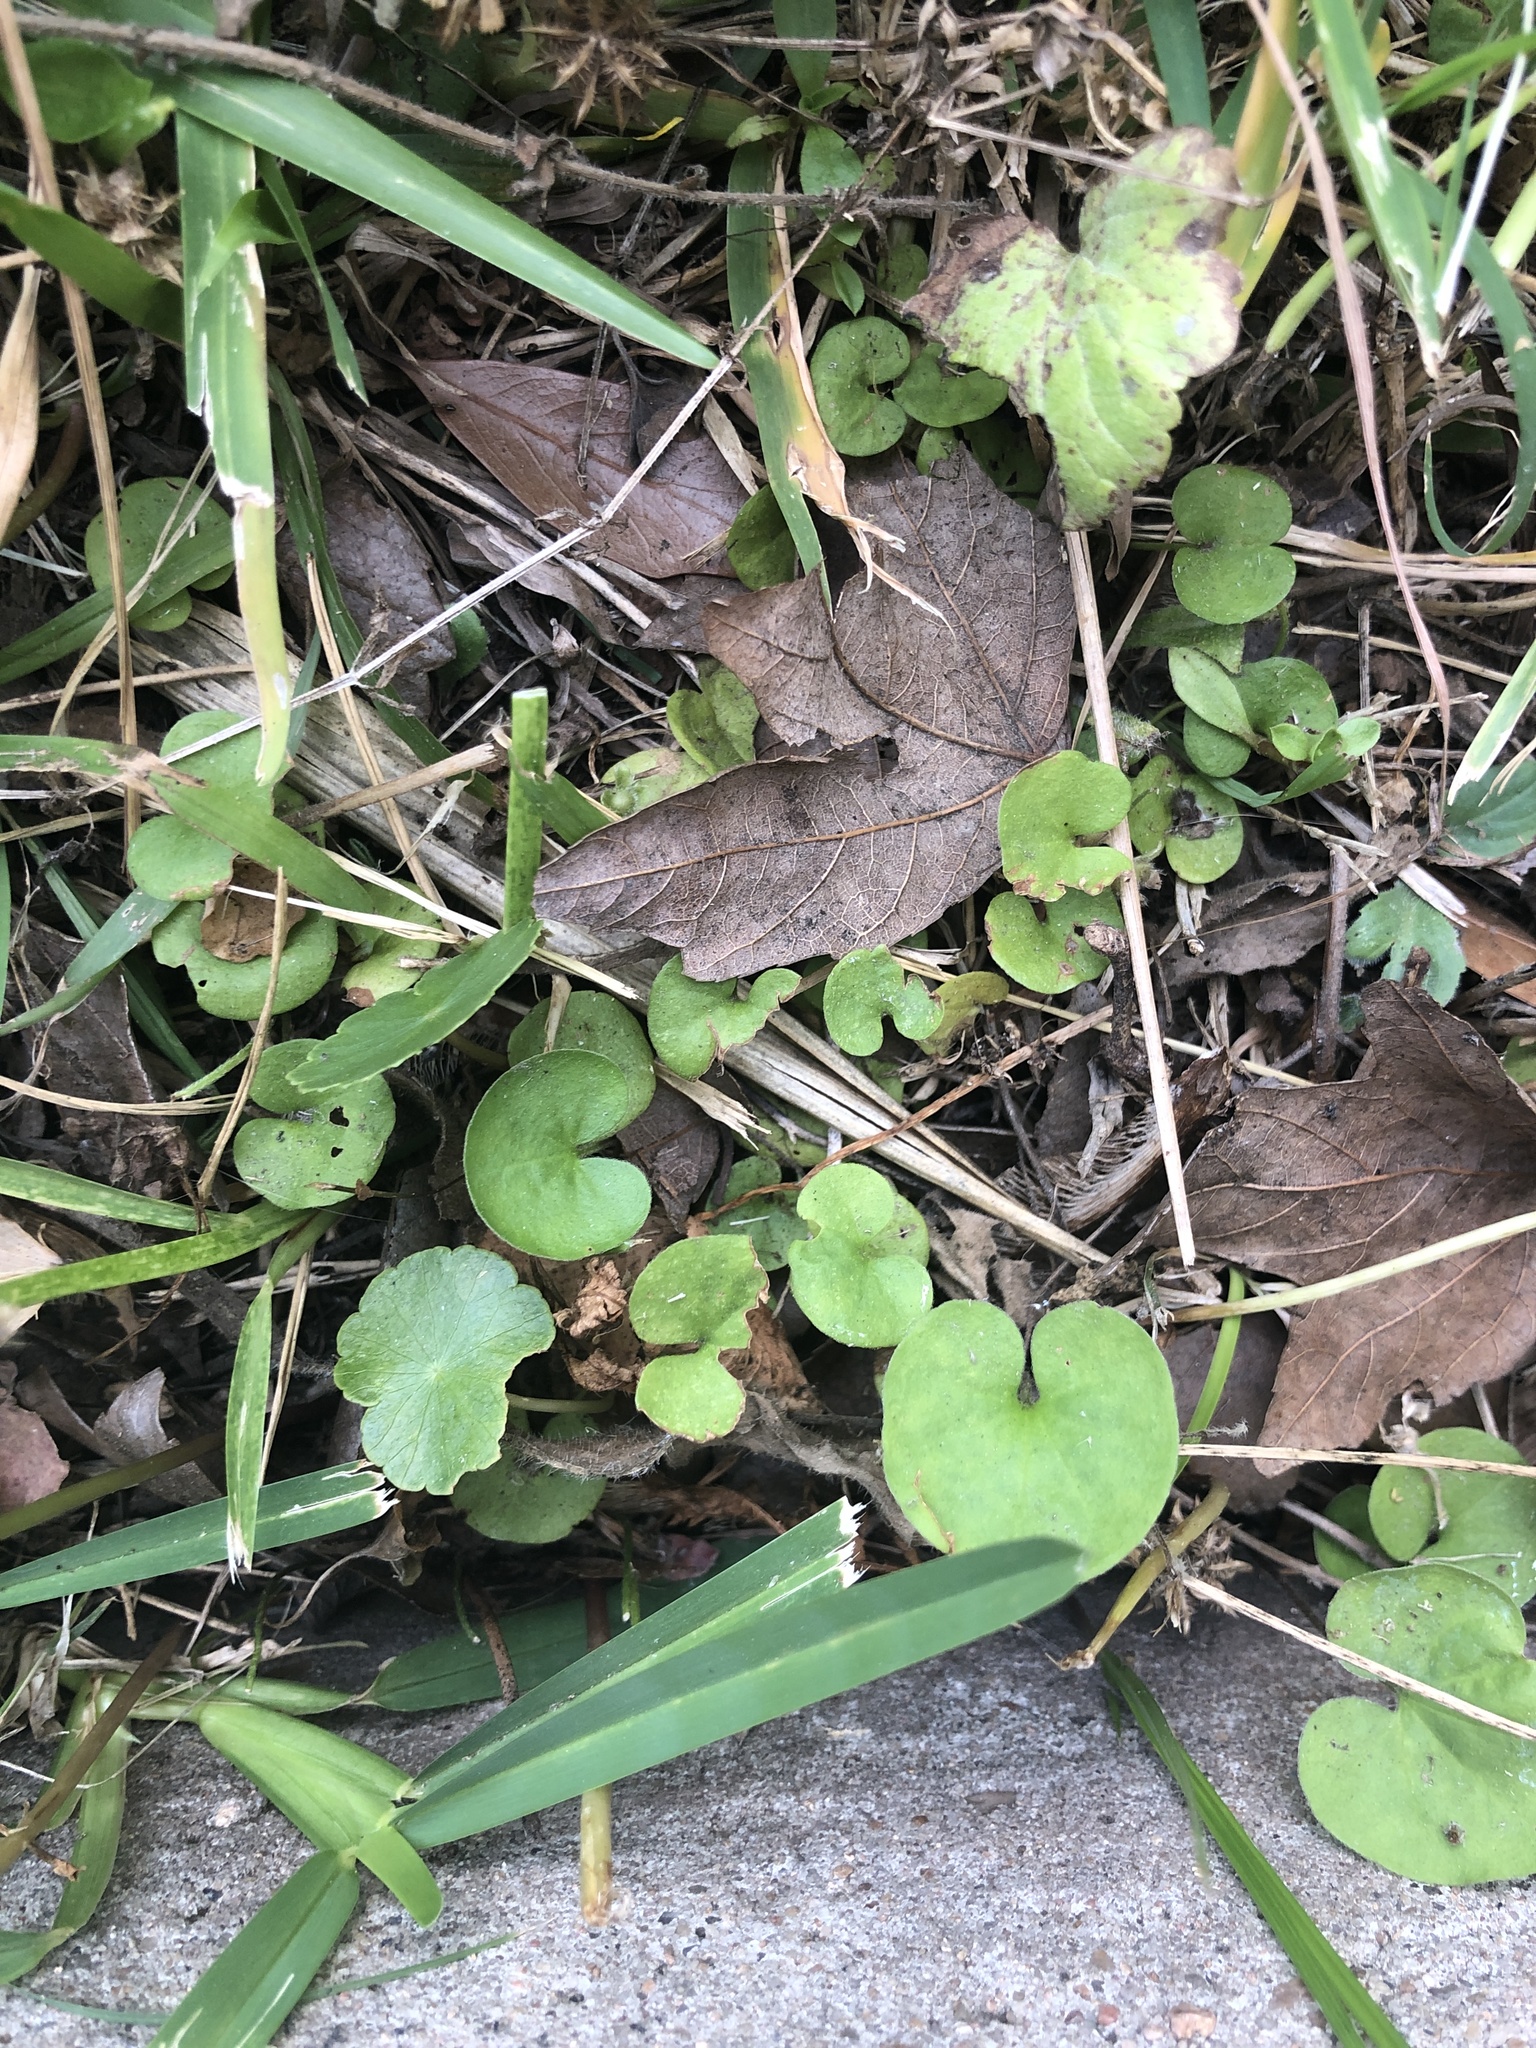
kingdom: Plantae
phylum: Tracheophyta
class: Magnoliopsida
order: Solanales
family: Convolvulaceae
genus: Dichondra
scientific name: Dichondra carolinensis
